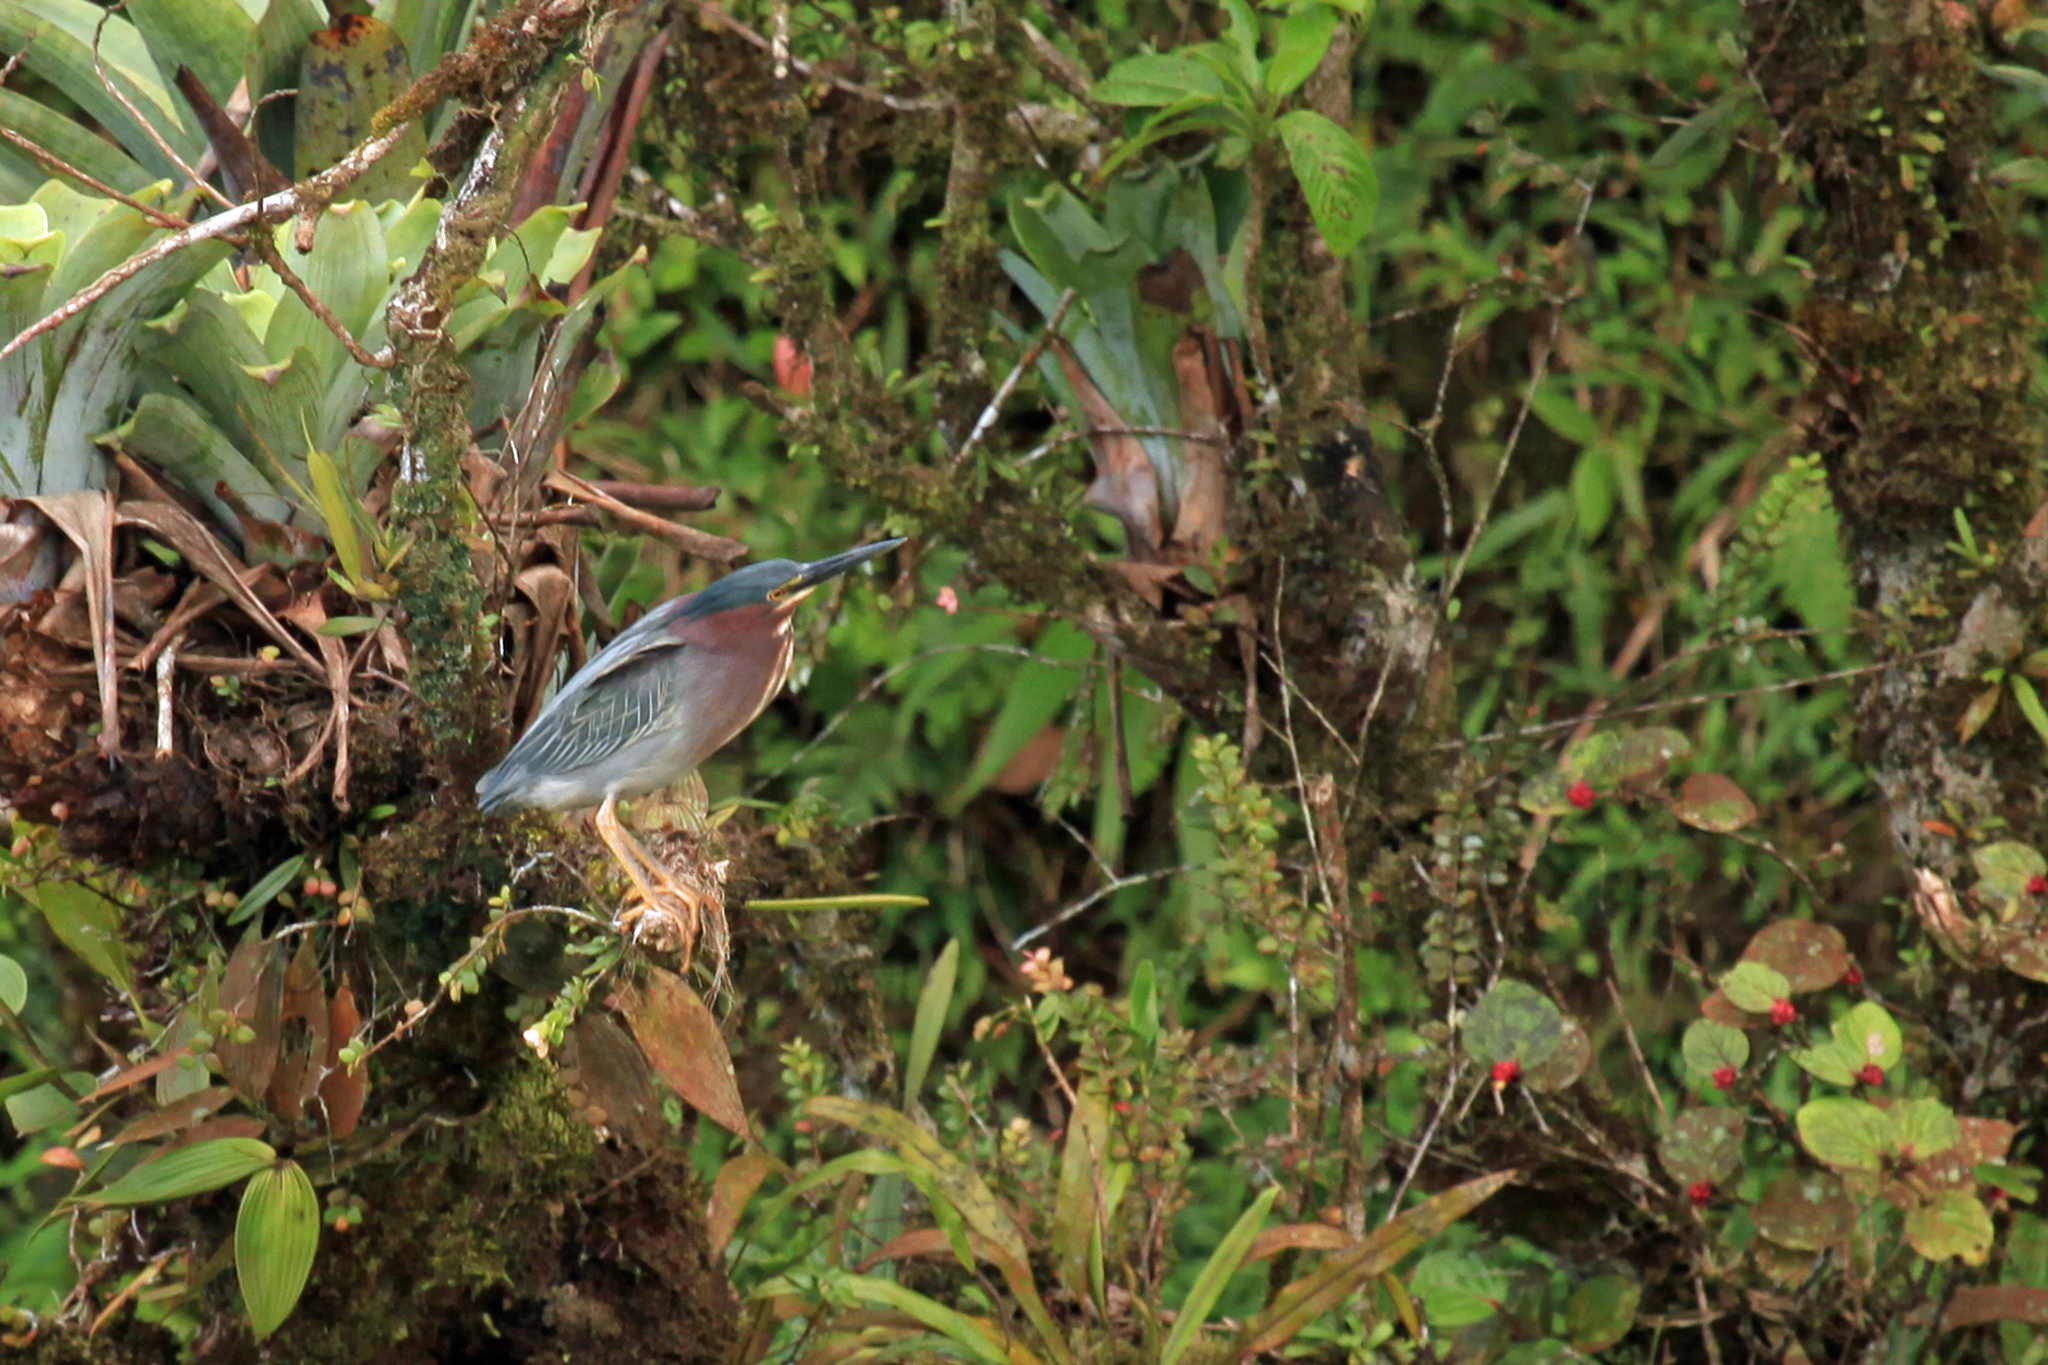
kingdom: Animalia
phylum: Chordata
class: Aves
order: Pelecaniformes
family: Ardeidae
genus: Butorides
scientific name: Butorides virescens
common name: Green heron
